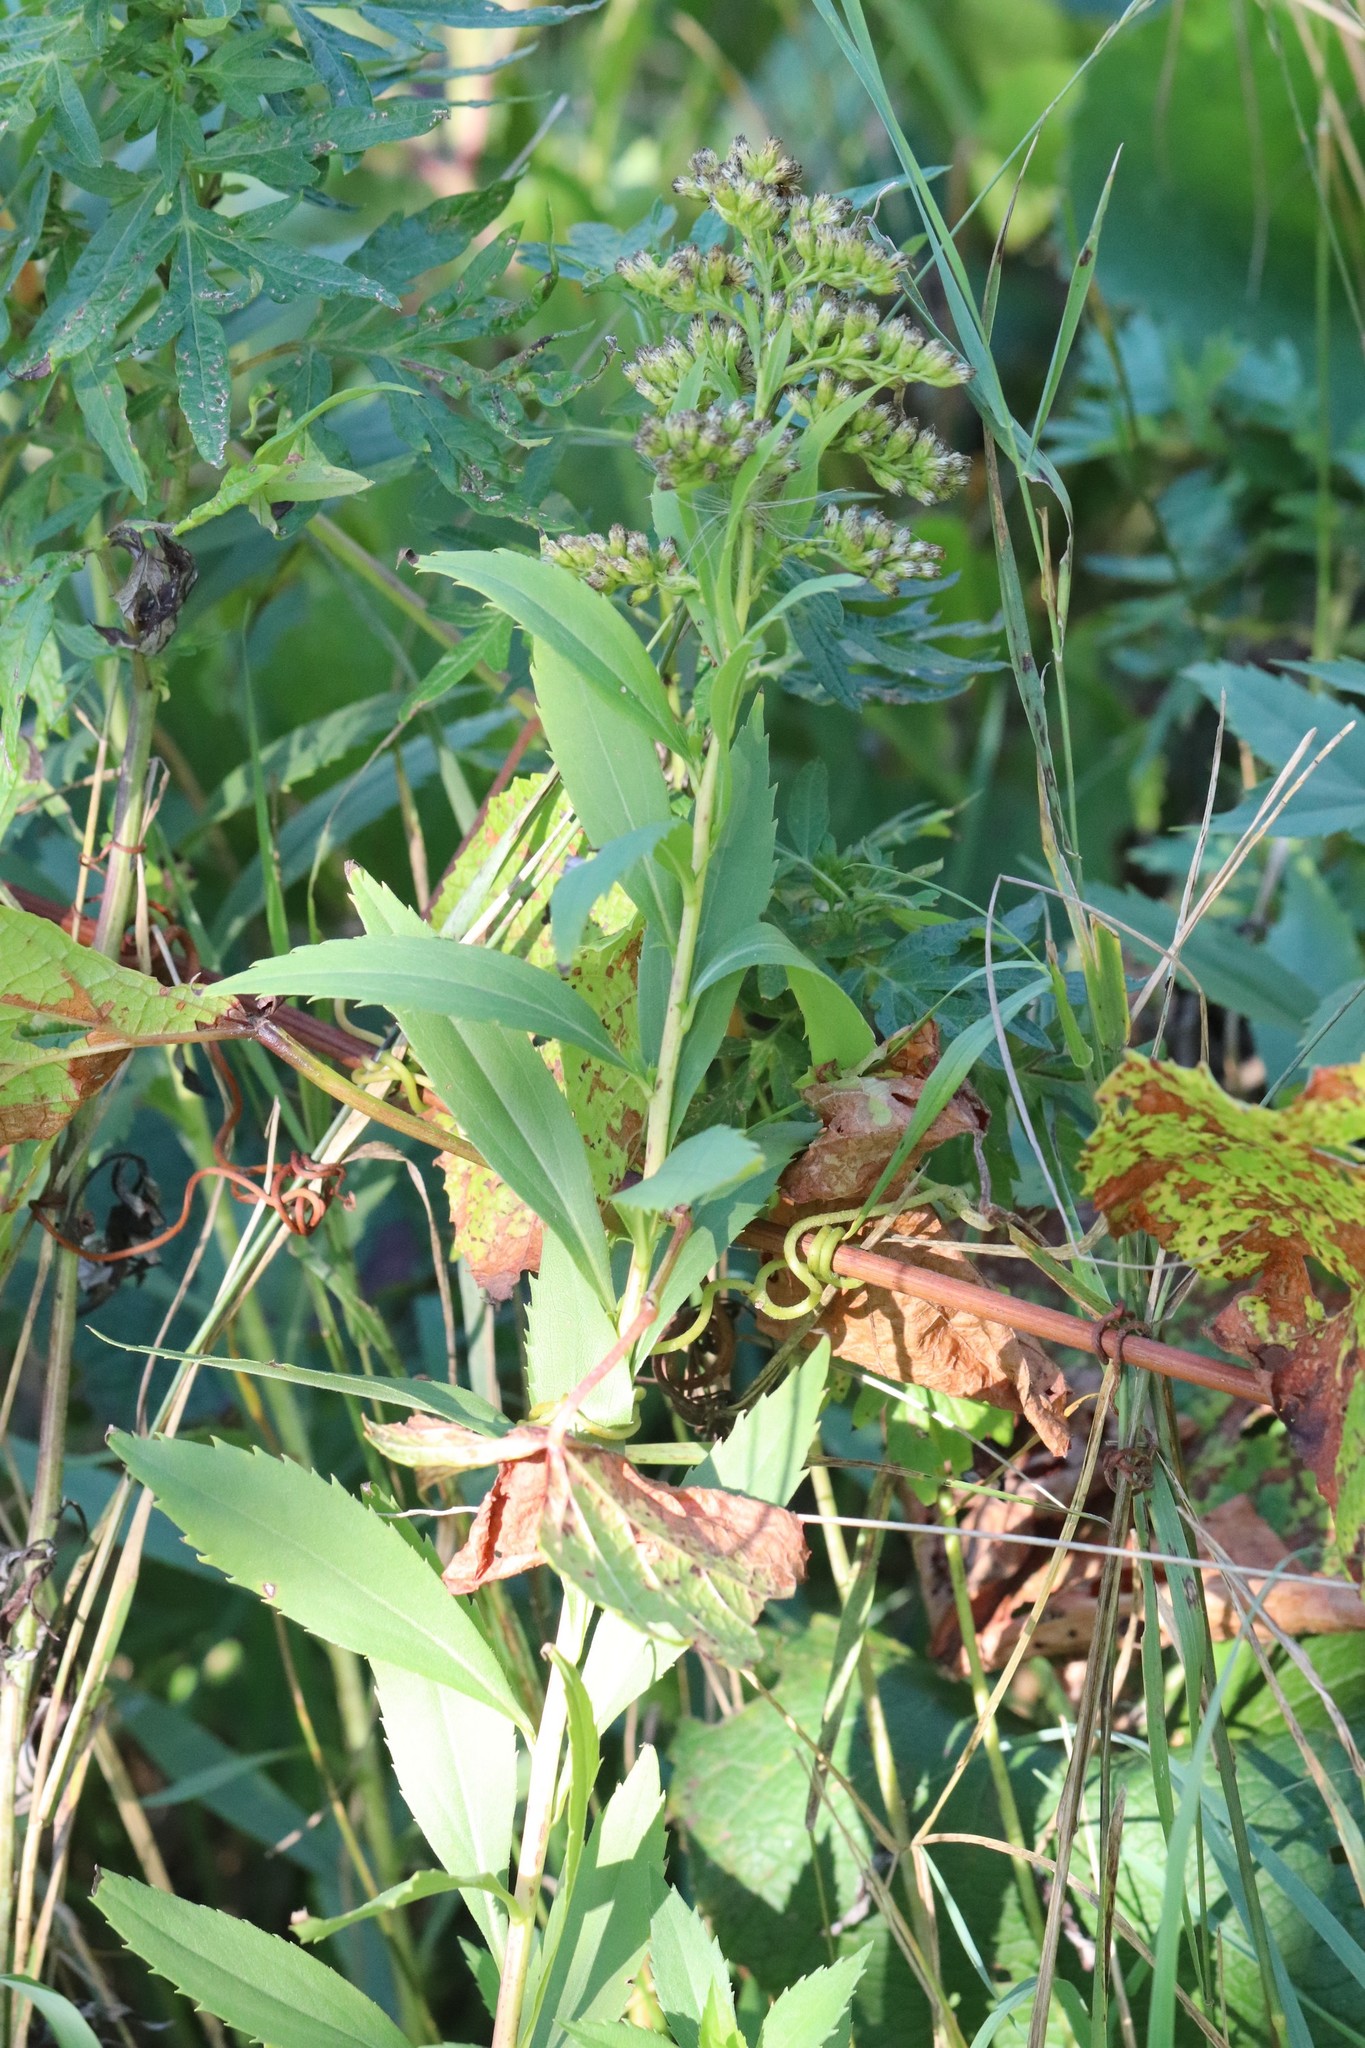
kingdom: Plantae
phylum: Tracheophyta
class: Magnoliopsida
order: Asterales
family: Asteraceae
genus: Solidago
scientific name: Solidago gigantea
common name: Giant goldenrod
